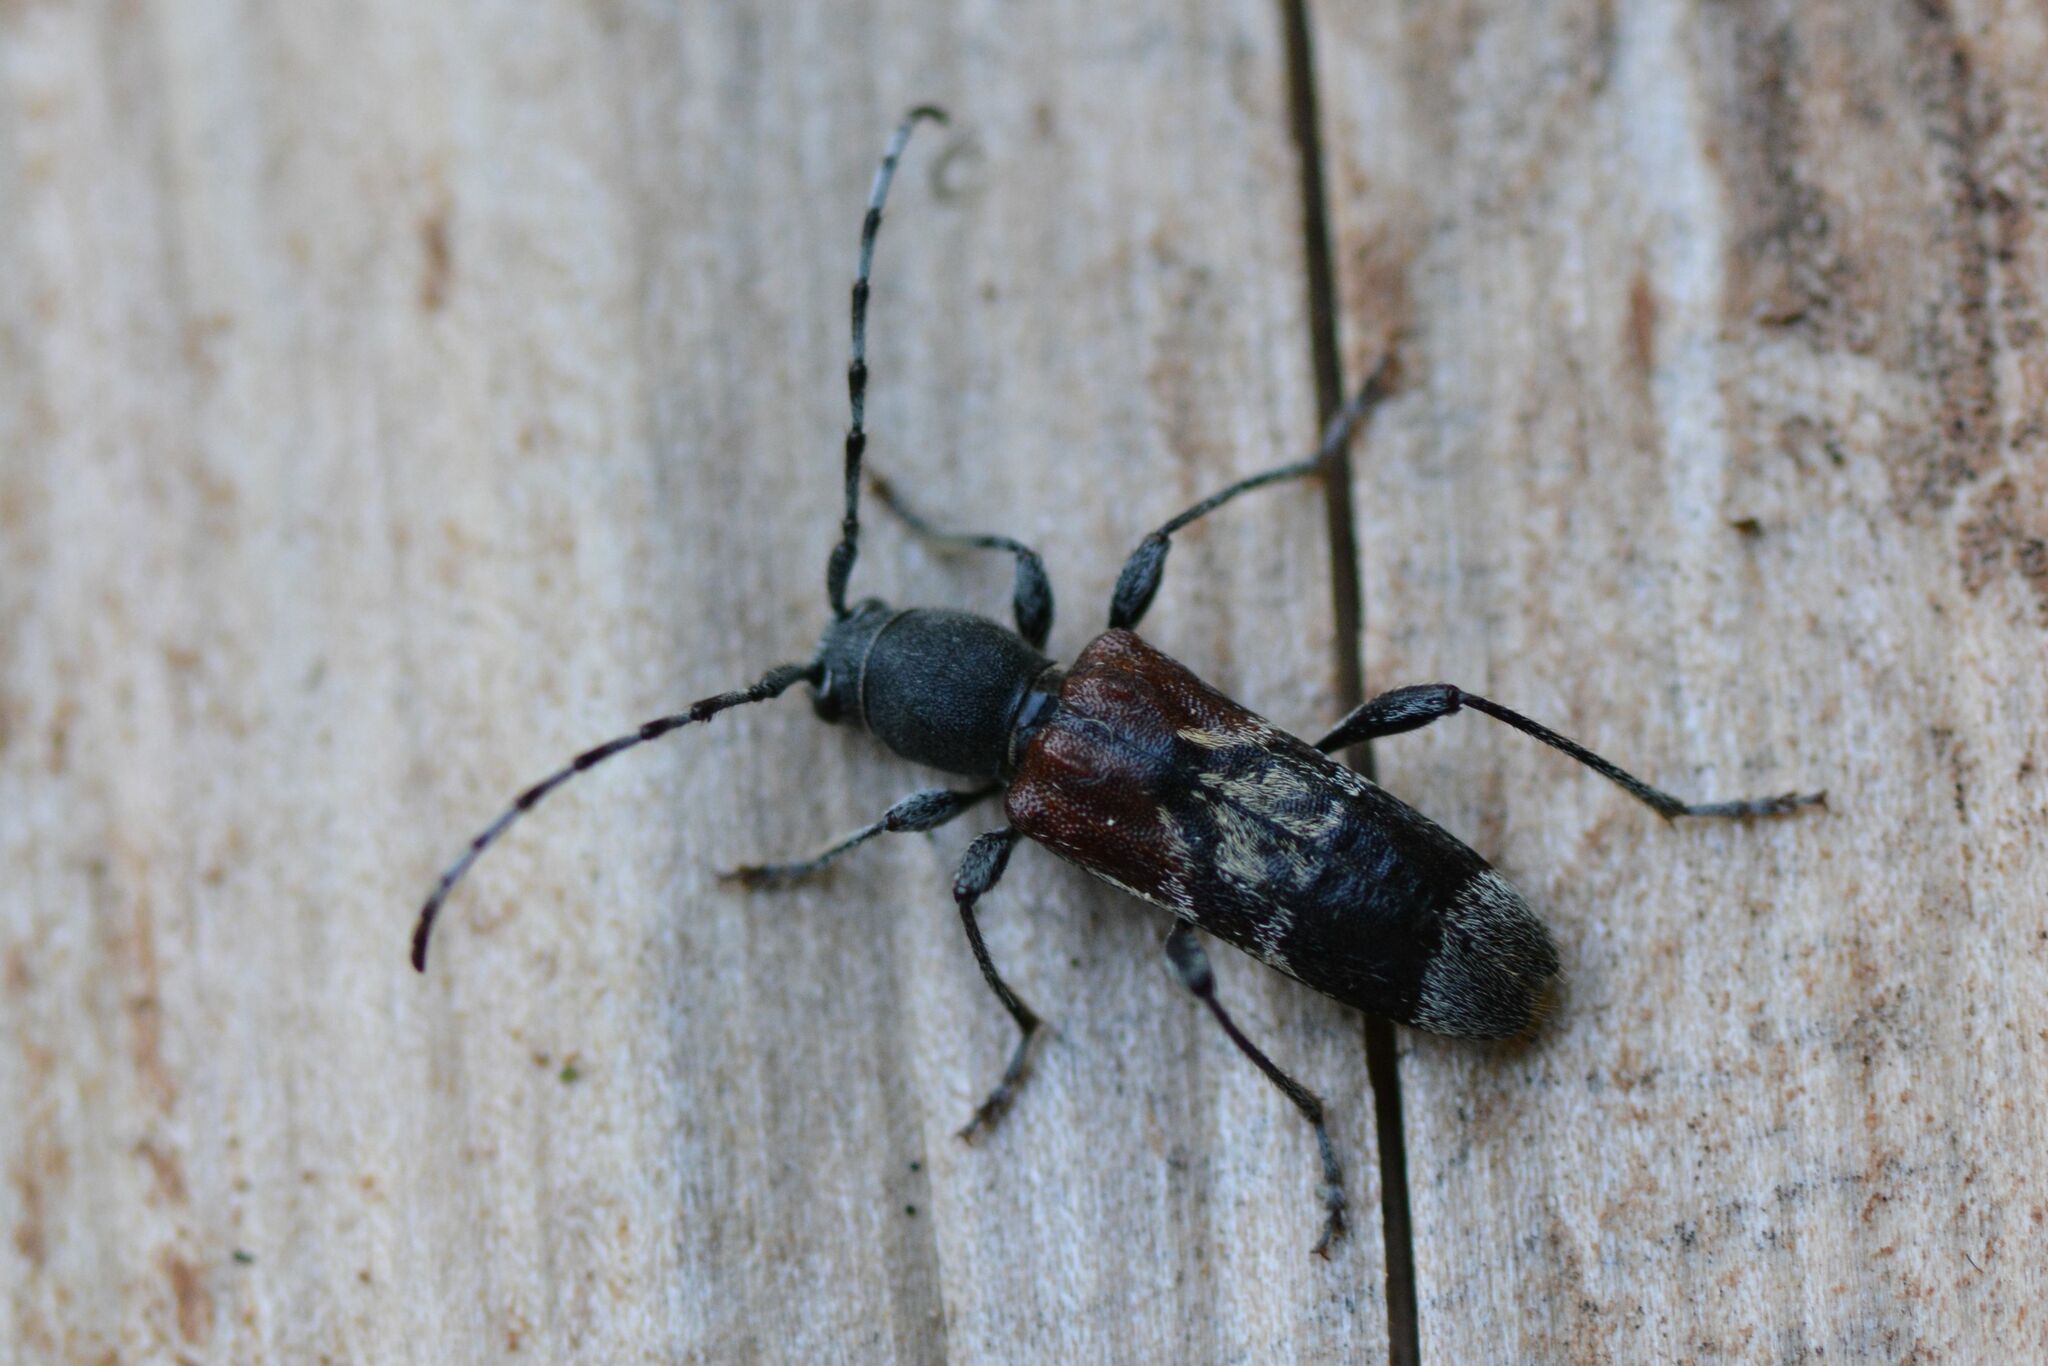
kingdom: Animalia
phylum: Arthropoda
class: Insecta
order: Coleoptera
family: Cerambycidae
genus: Anaglyptus
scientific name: Anaglyptus mysticus
